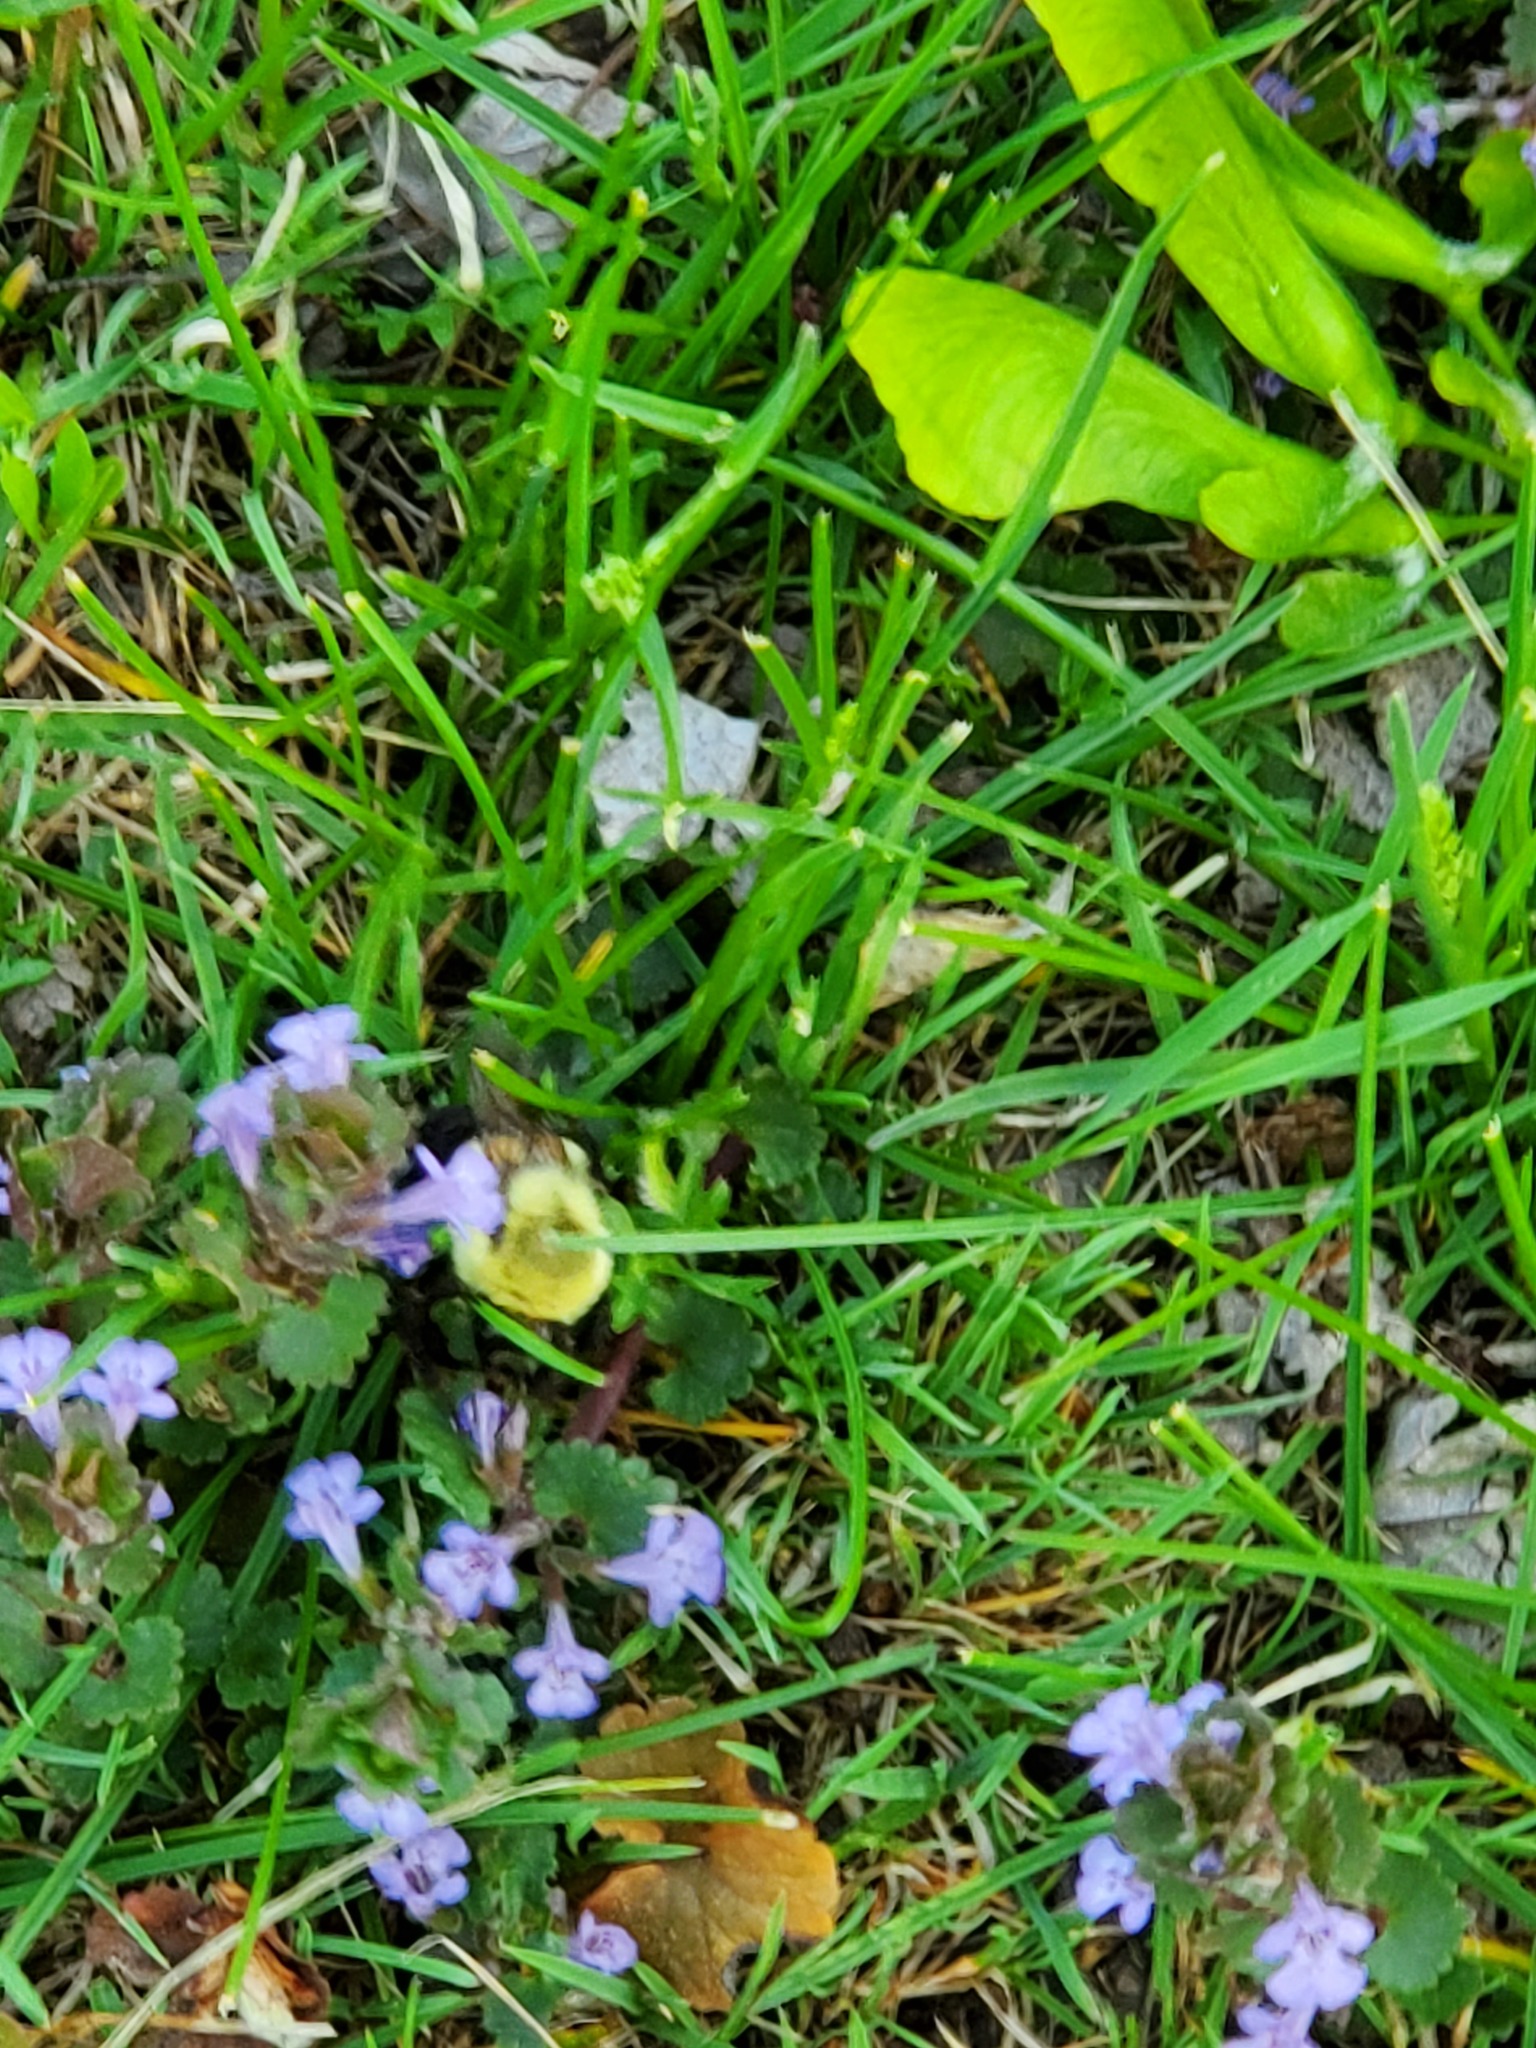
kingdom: Plantae
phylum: Tracheophyta
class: Magnoliopsida
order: Lamiales
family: Lamiaceae
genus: Glechoma
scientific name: Glechoma hederacea
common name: Ground ivy
